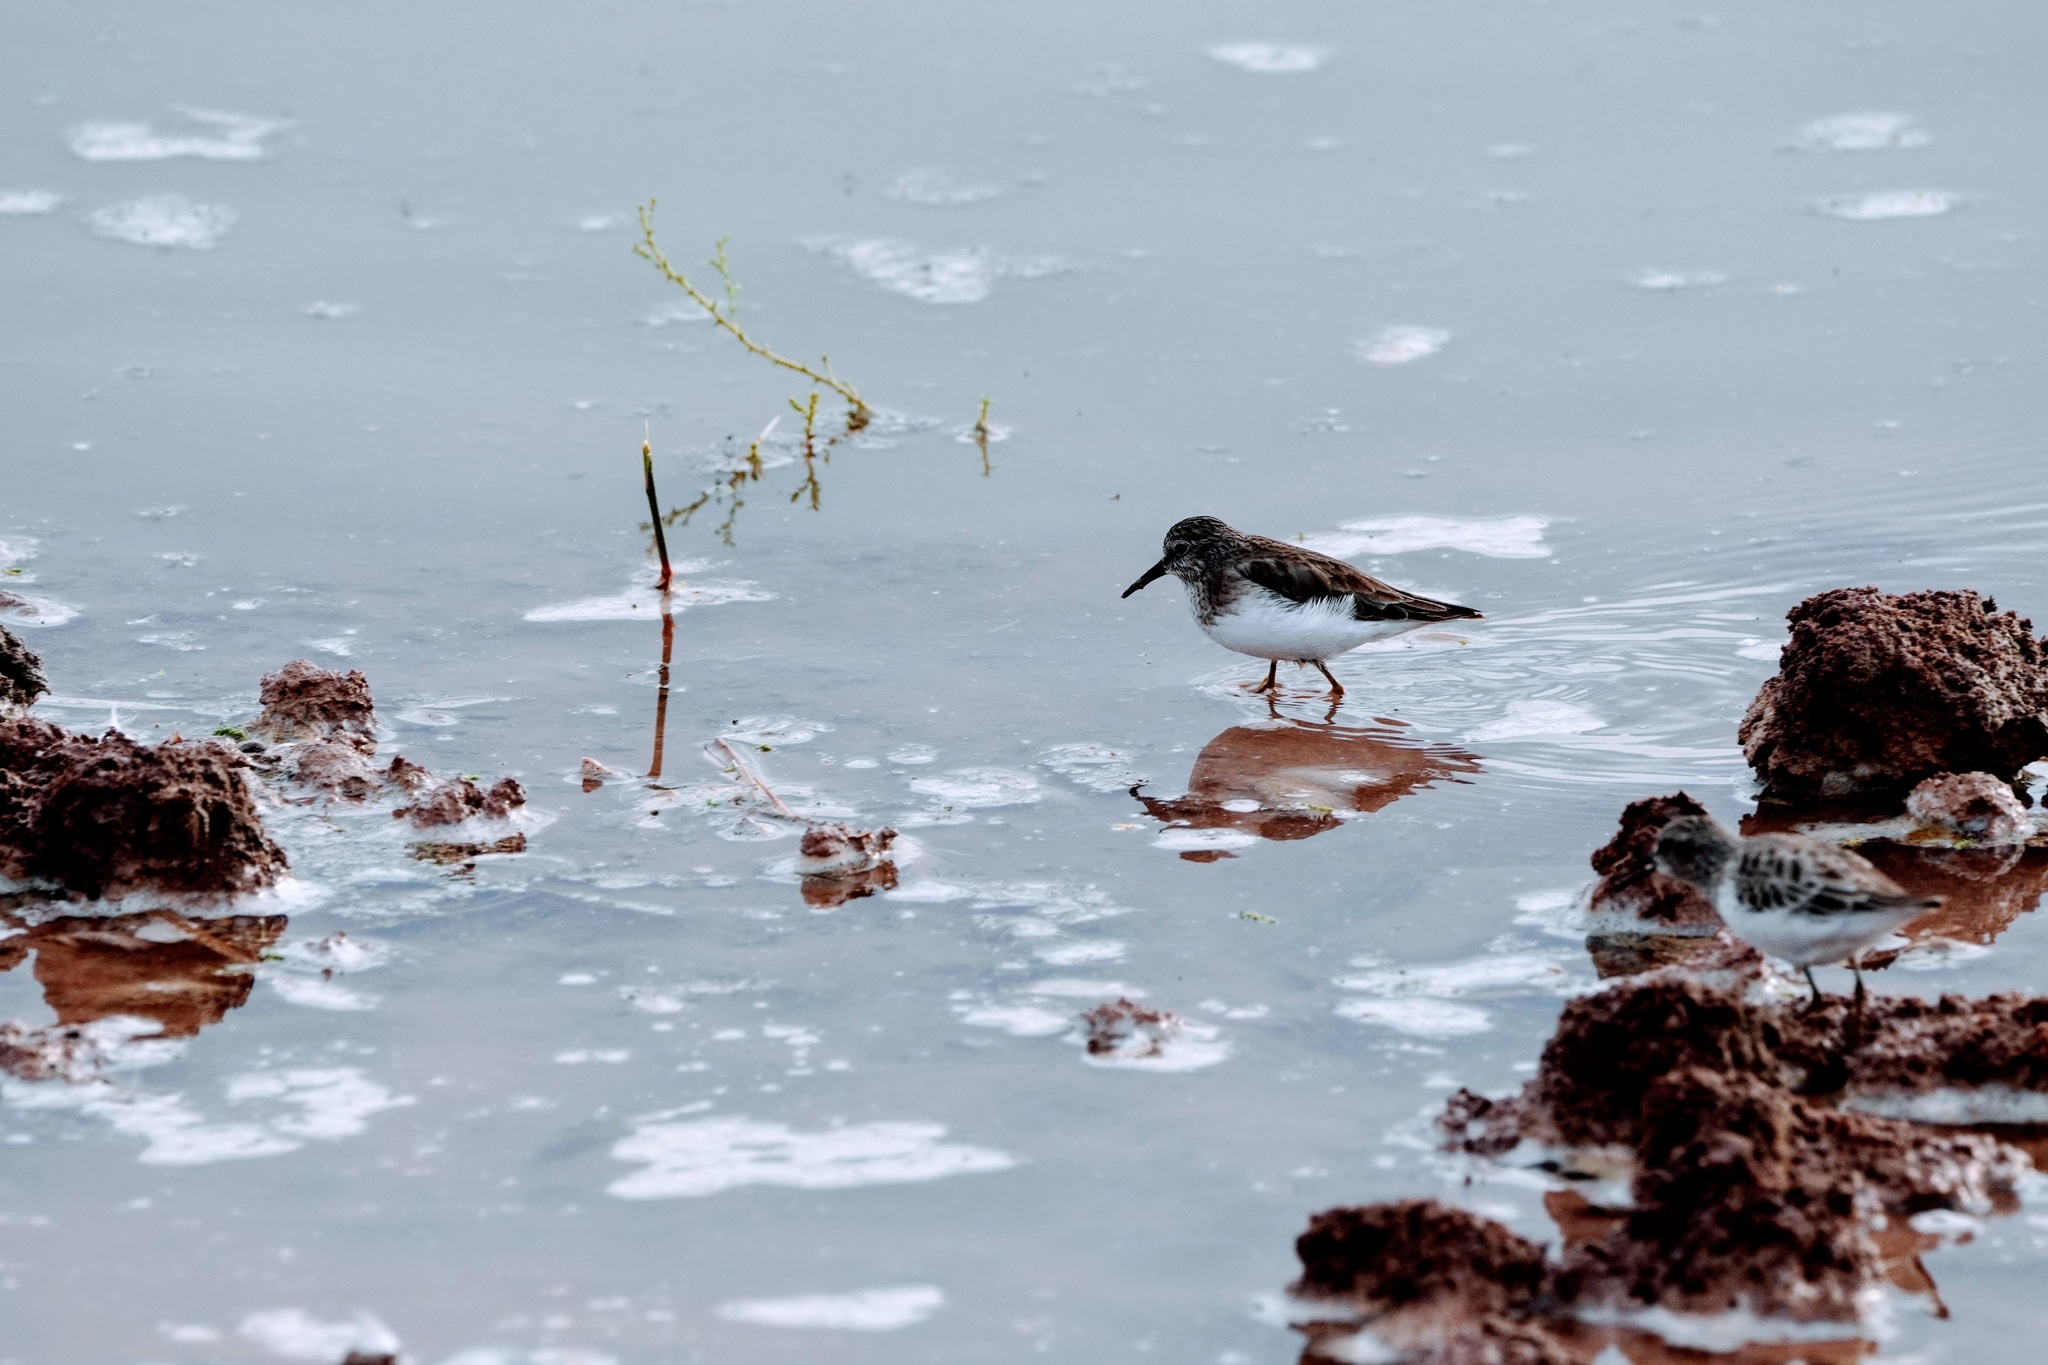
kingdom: Animalia
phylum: Chordata
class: Aves
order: Charadriiformes
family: Scolopacidae
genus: Calidris
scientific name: Calidris minutilla
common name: Least sandpiper
